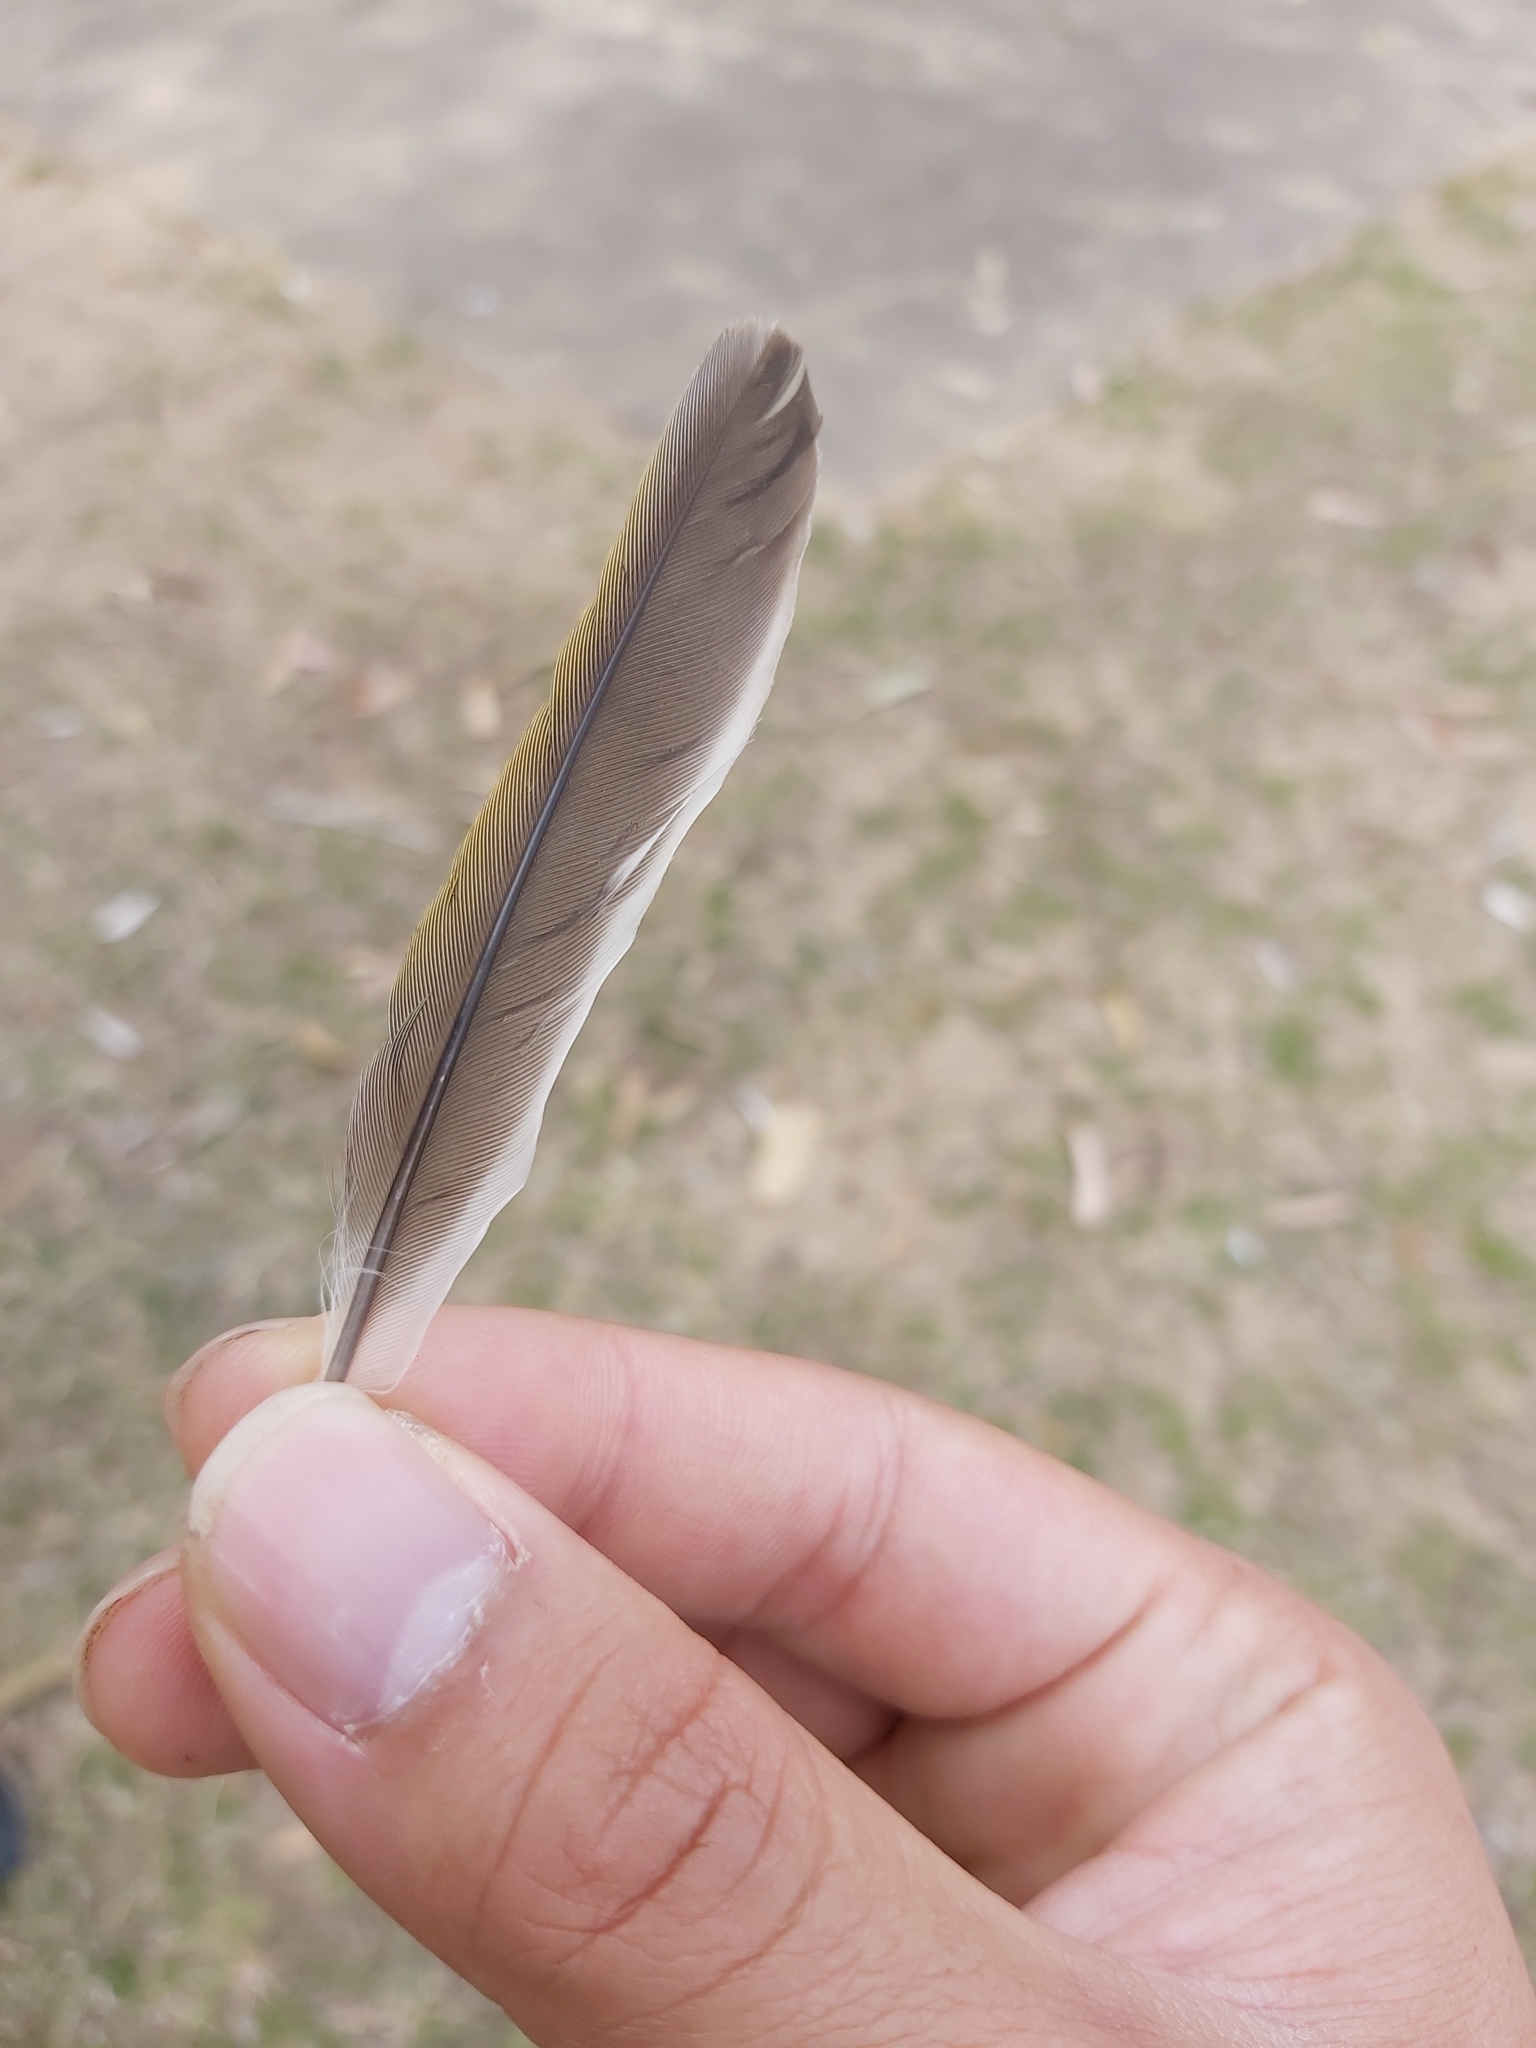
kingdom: Animalia
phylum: Chordata
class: Aves
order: Passeriformes
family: Meliphagidae
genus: Manorina
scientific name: Manorina melanocephala
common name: Noisy miner
